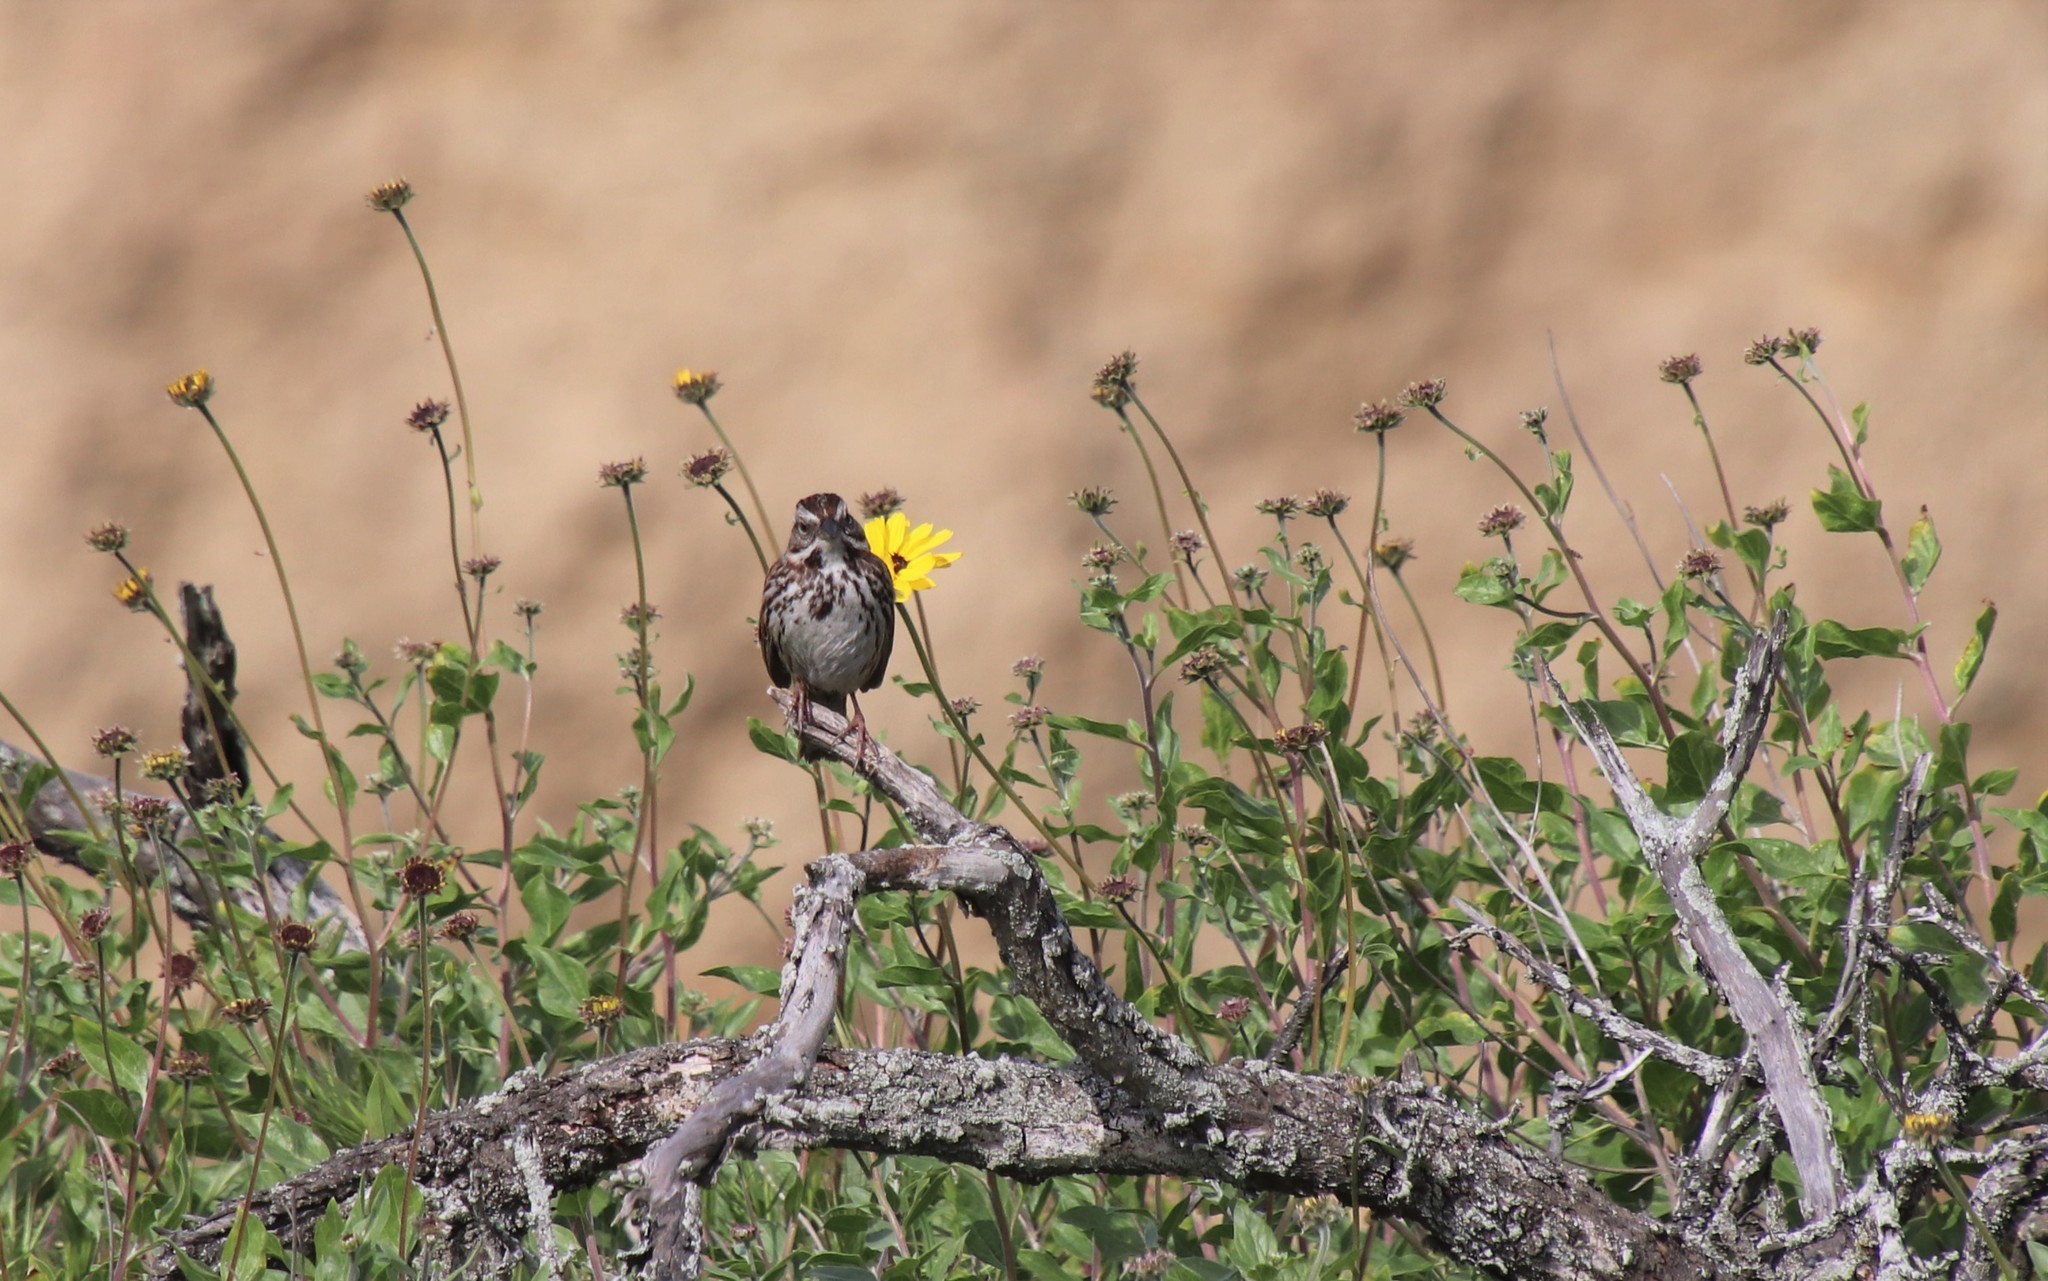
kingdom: Animalia
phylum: Chordata
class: Aves
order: Passeriformes
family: Passerellidae
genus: Melospiza
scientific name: Melospiza melodia
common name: Song sparrow
